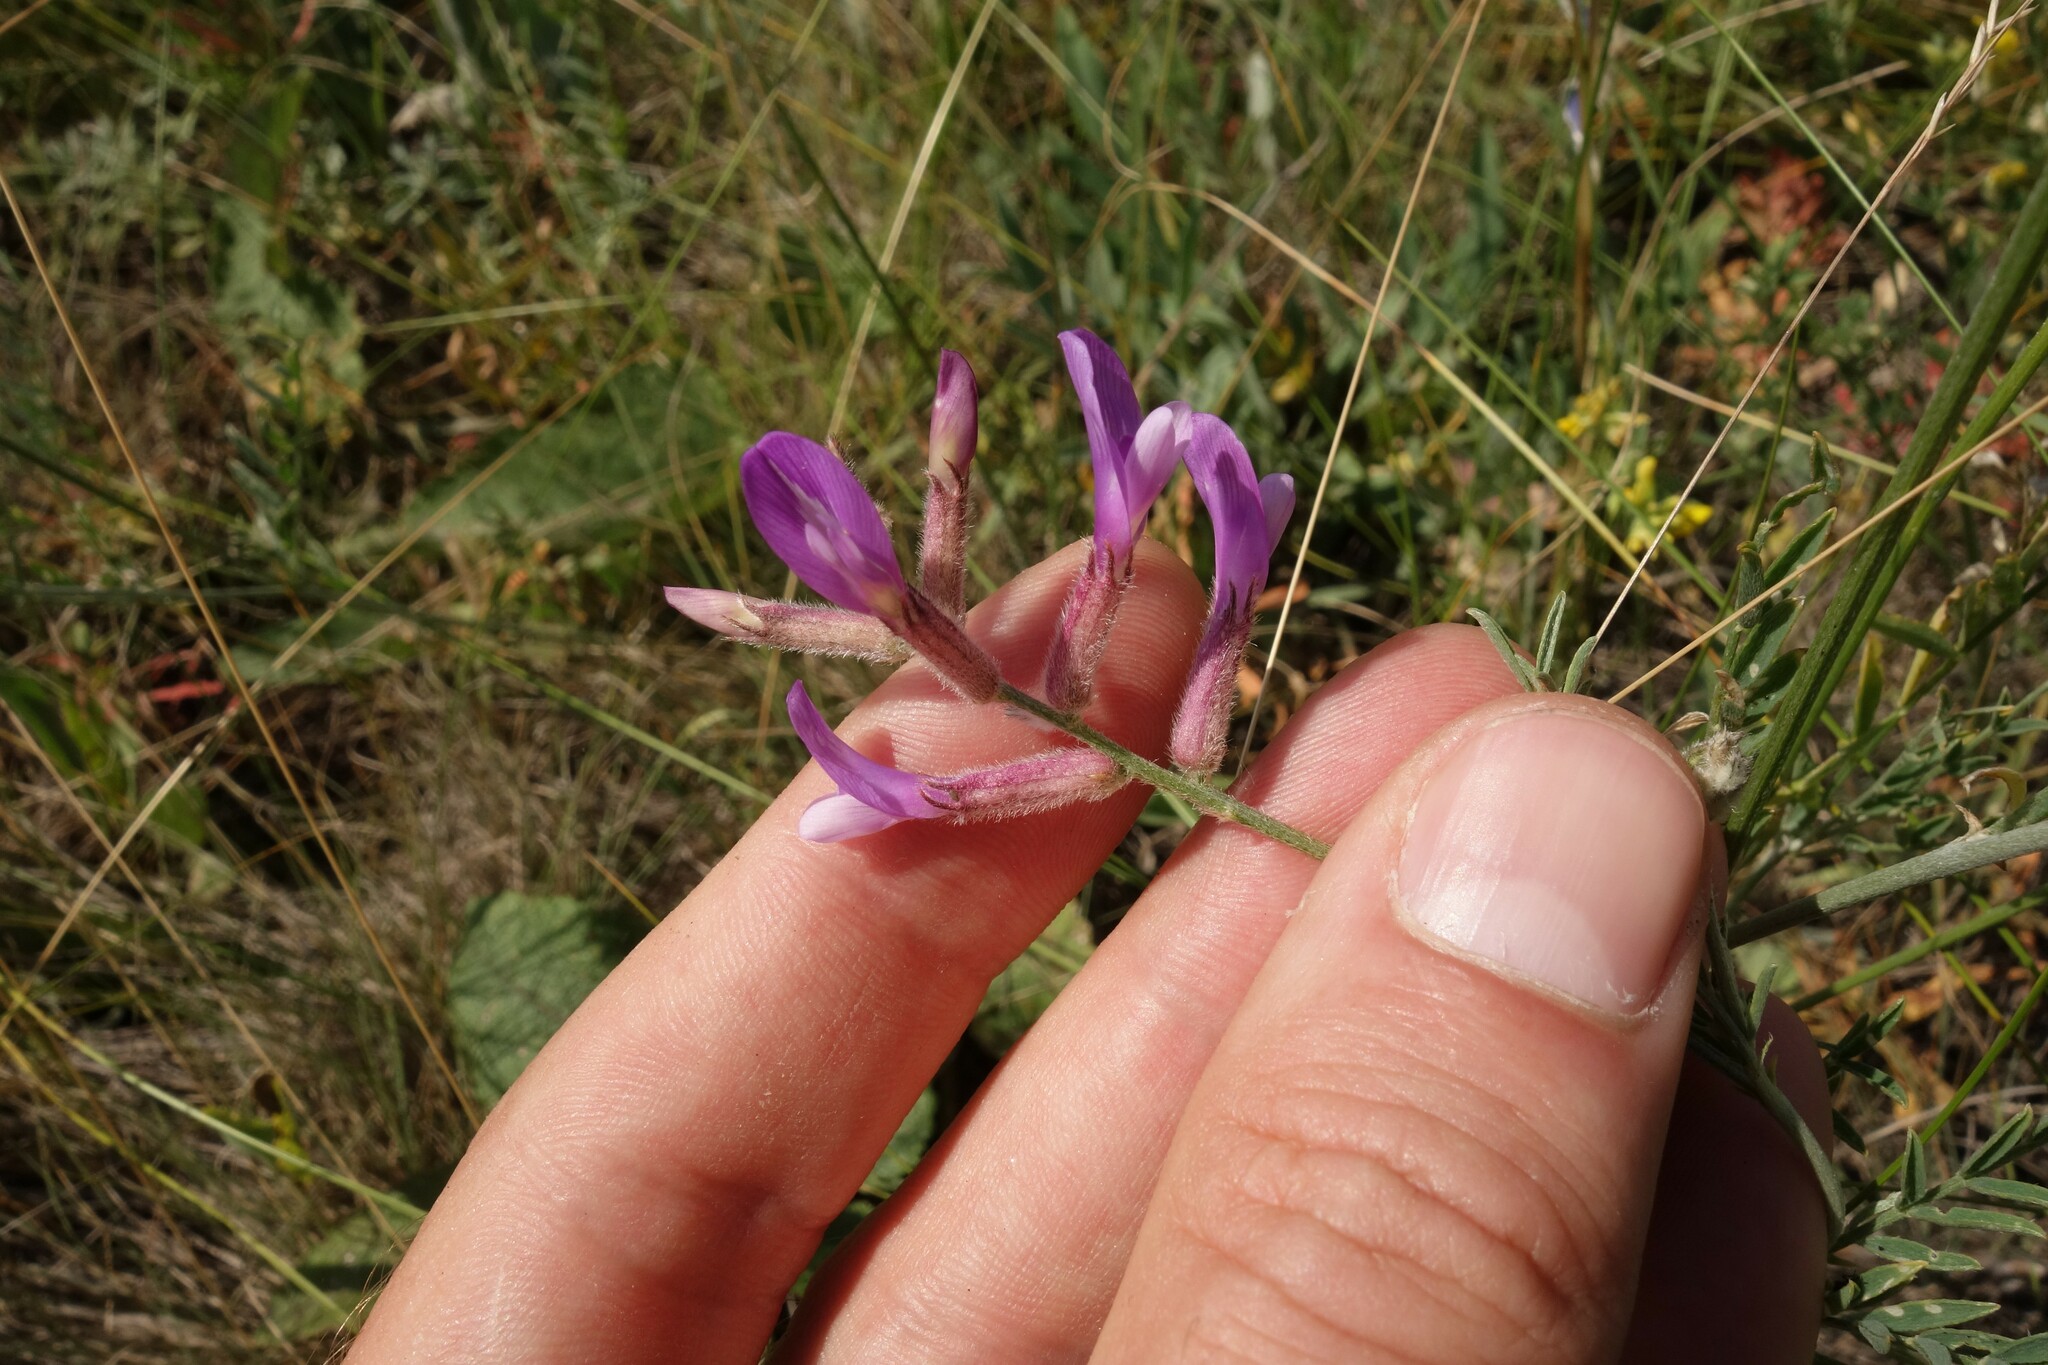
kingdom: Plantae
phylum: Tracheophyta
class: Magnoliopsida
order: Fabales
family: Fabaceae
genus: Astragalus
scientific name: Astragalus varius
